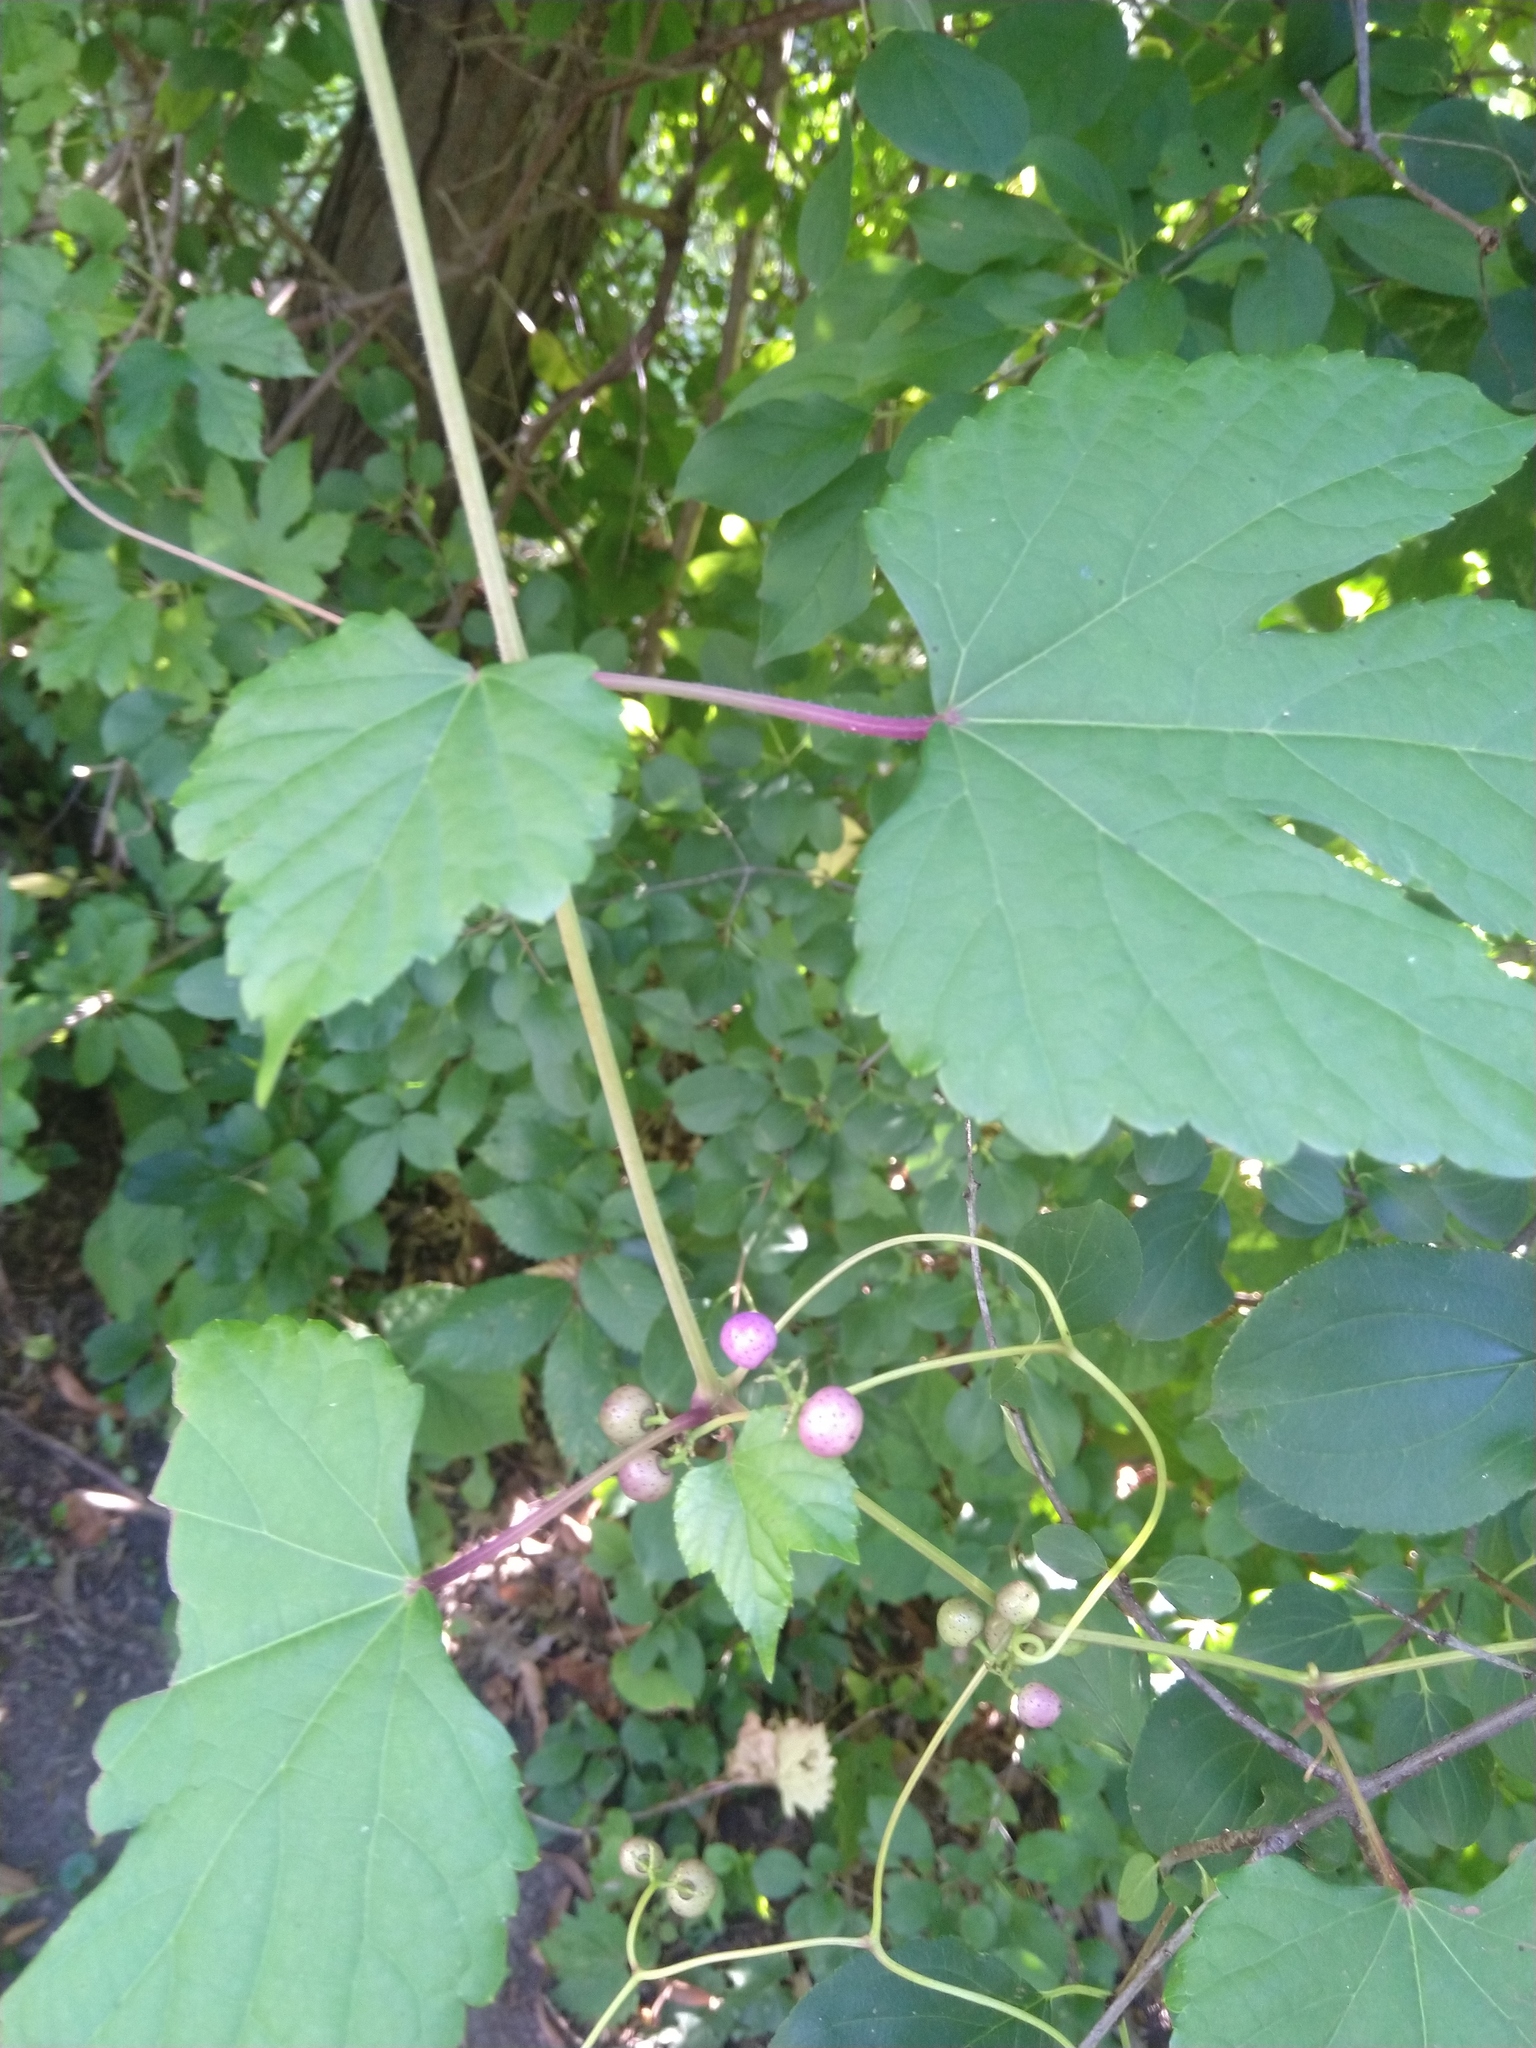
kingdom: Plantae
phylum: Tracheophyta
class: Magnoliopsida
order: Vitales
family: Vitaceae
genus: Ampelopsis
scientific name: Ampelopsis glandulosa
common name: Amur peppervine
